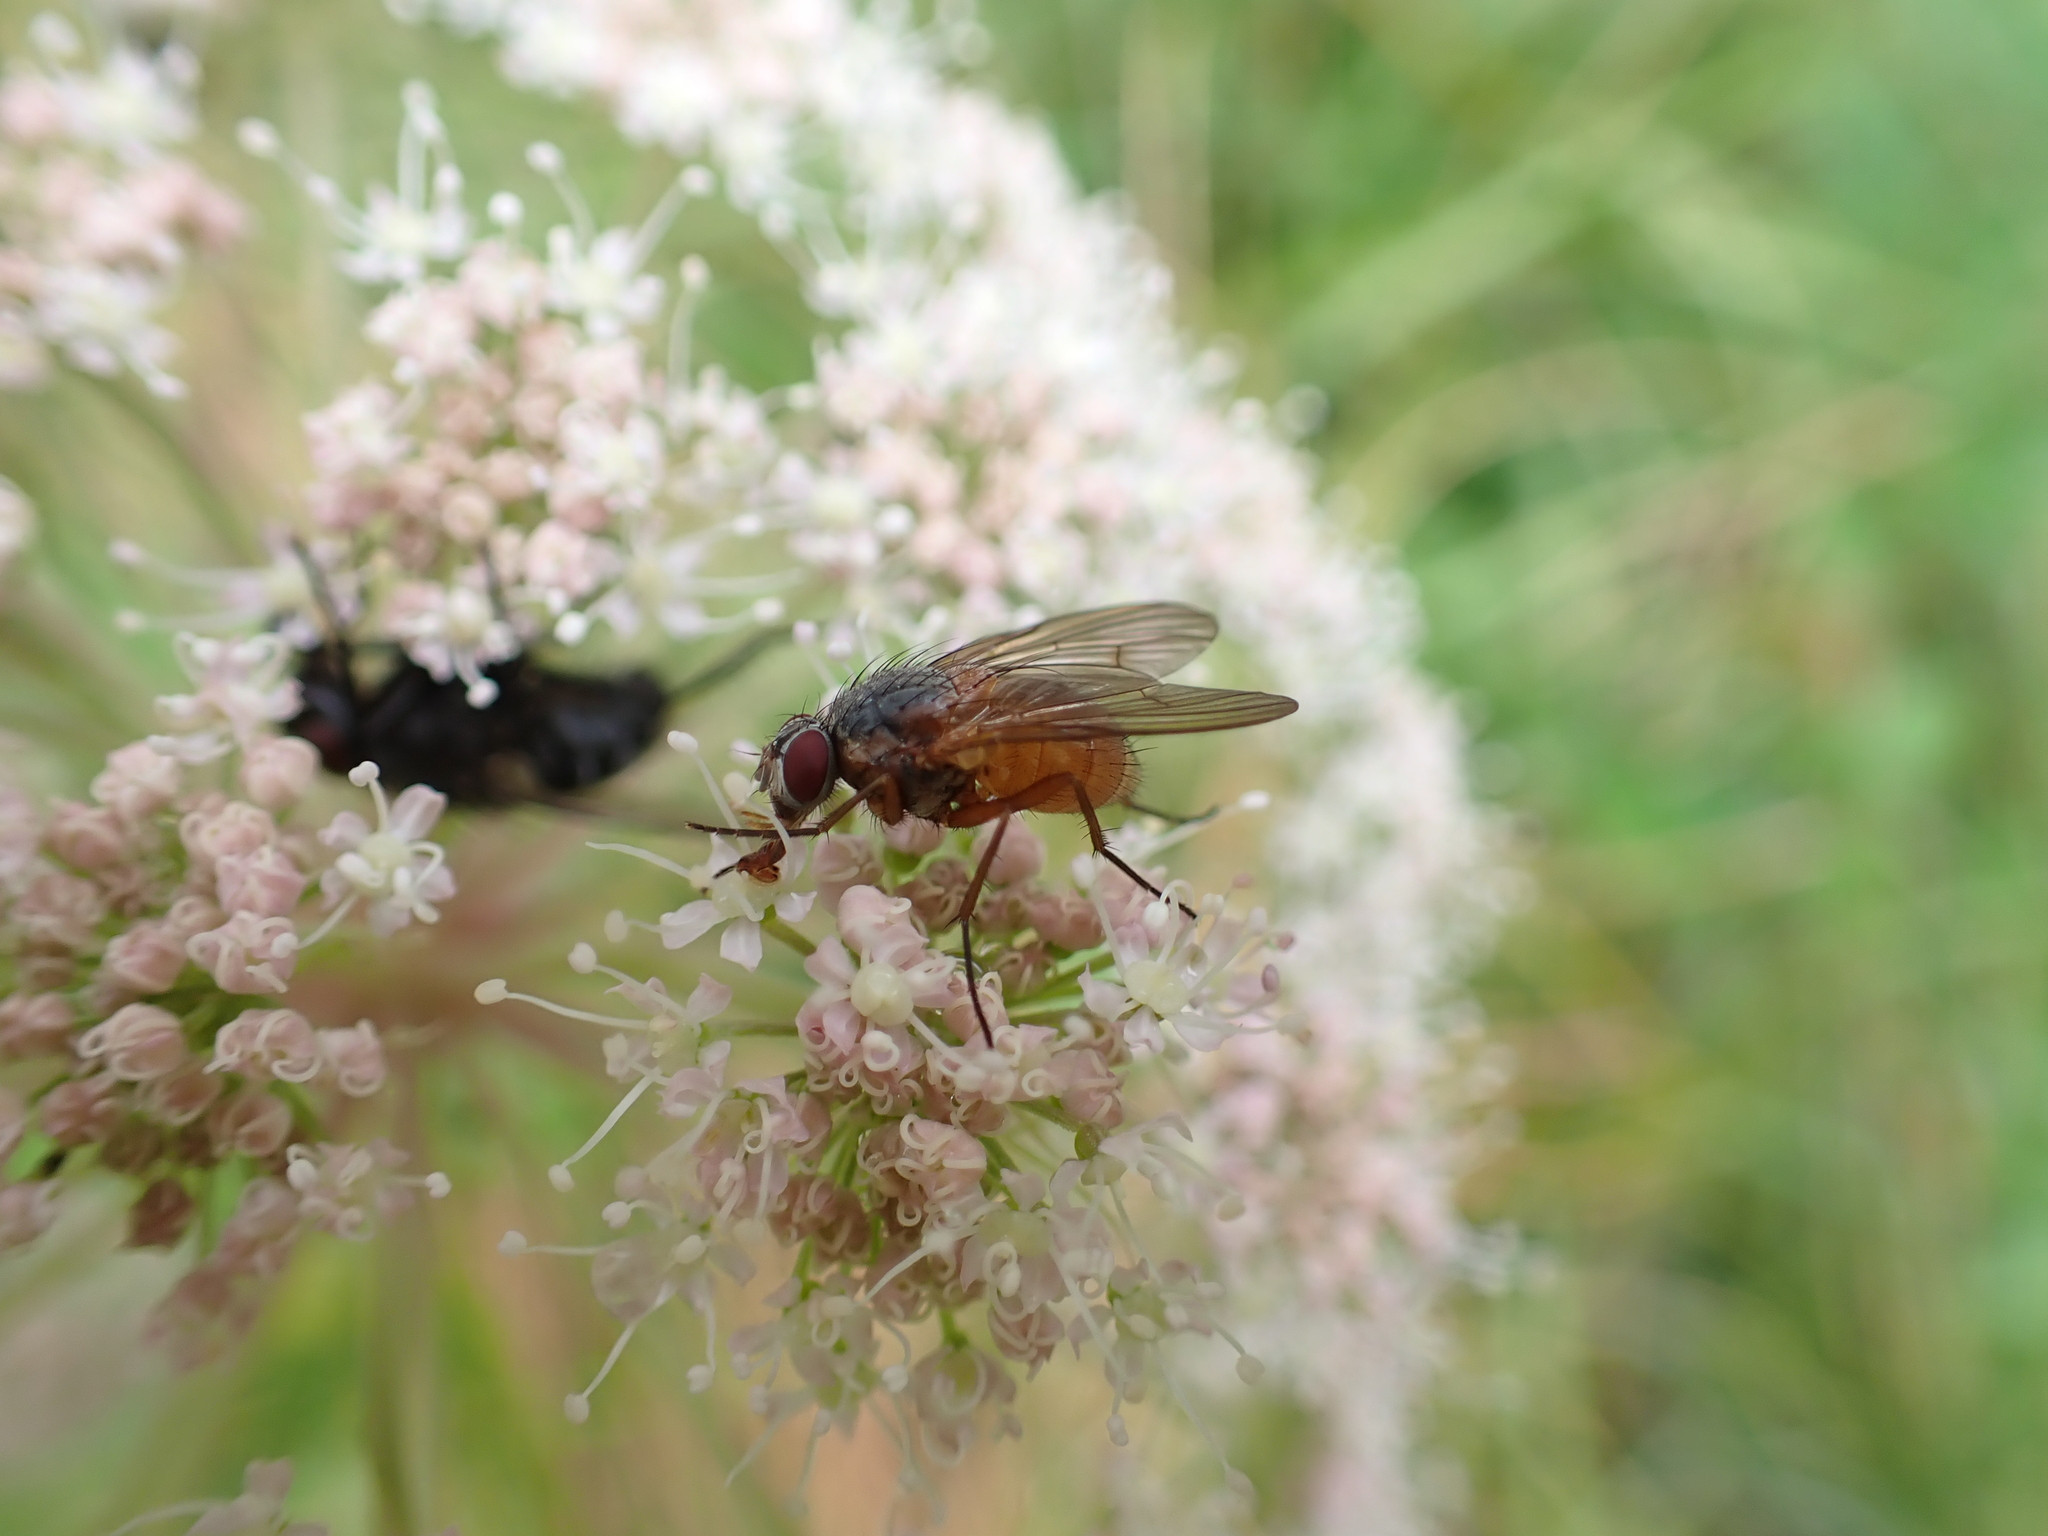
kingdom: Animalia
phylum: Arthropoda
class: Insecta
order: Diptera
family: Muscidae
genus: Phaonia
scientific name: Phaonia rufiventris
